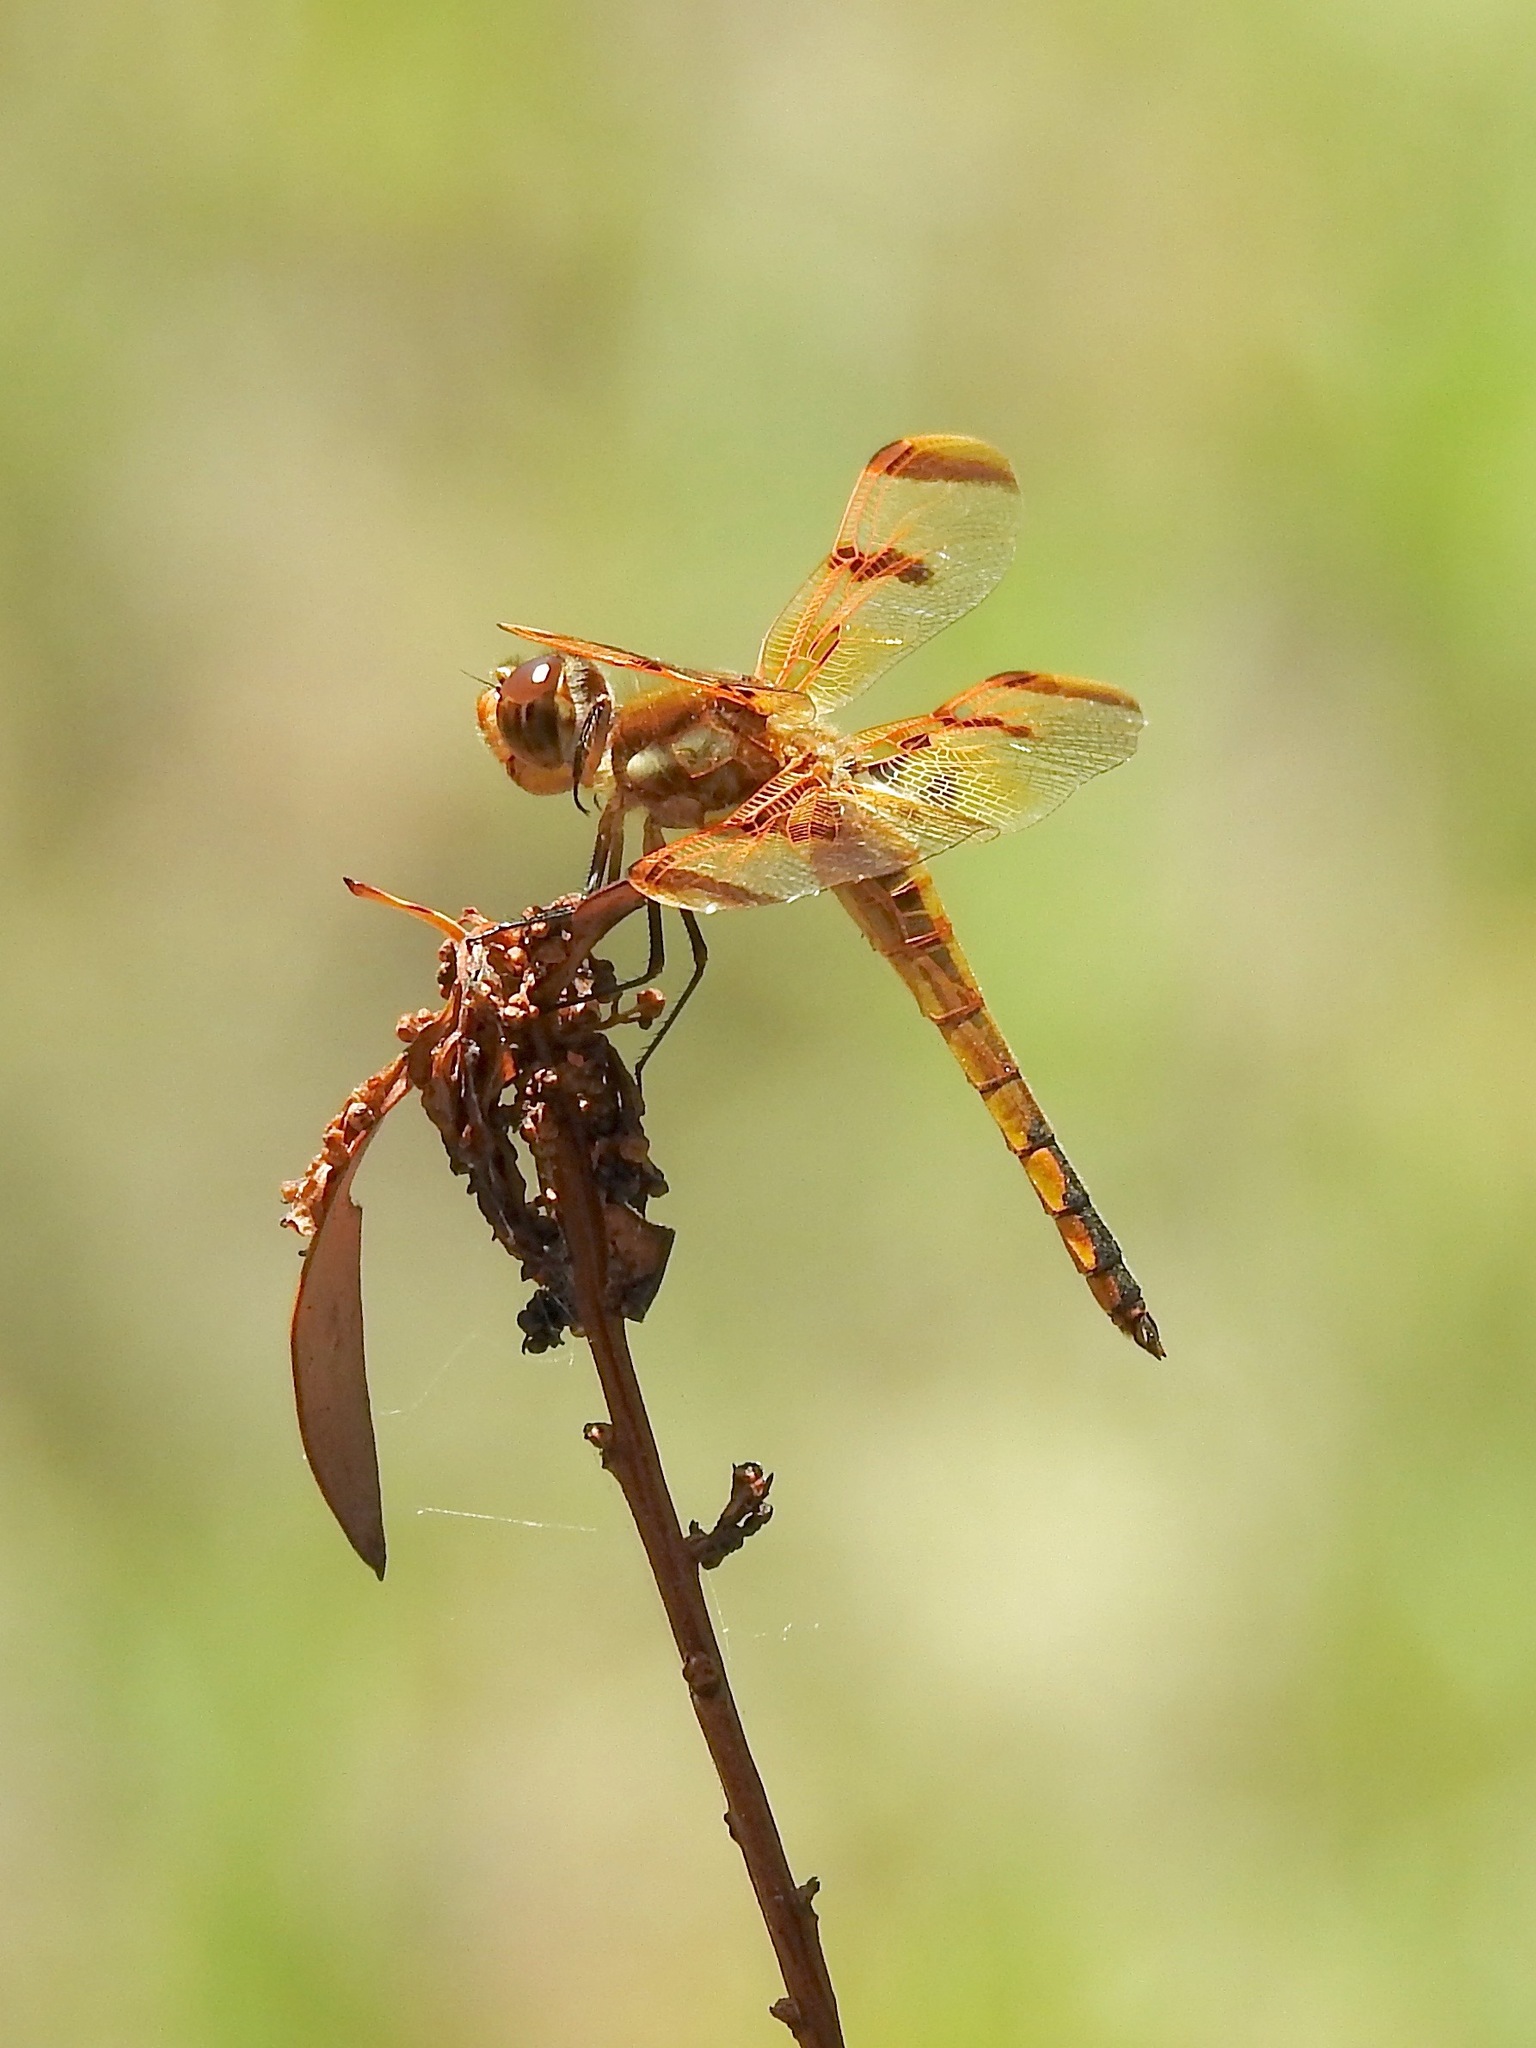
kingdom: Animalia
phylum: Arthropoda
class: Insecta
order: Odonata
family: Libellulidae
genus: Libellula
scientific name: Libellula semifasciata
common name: Painted skimmer
